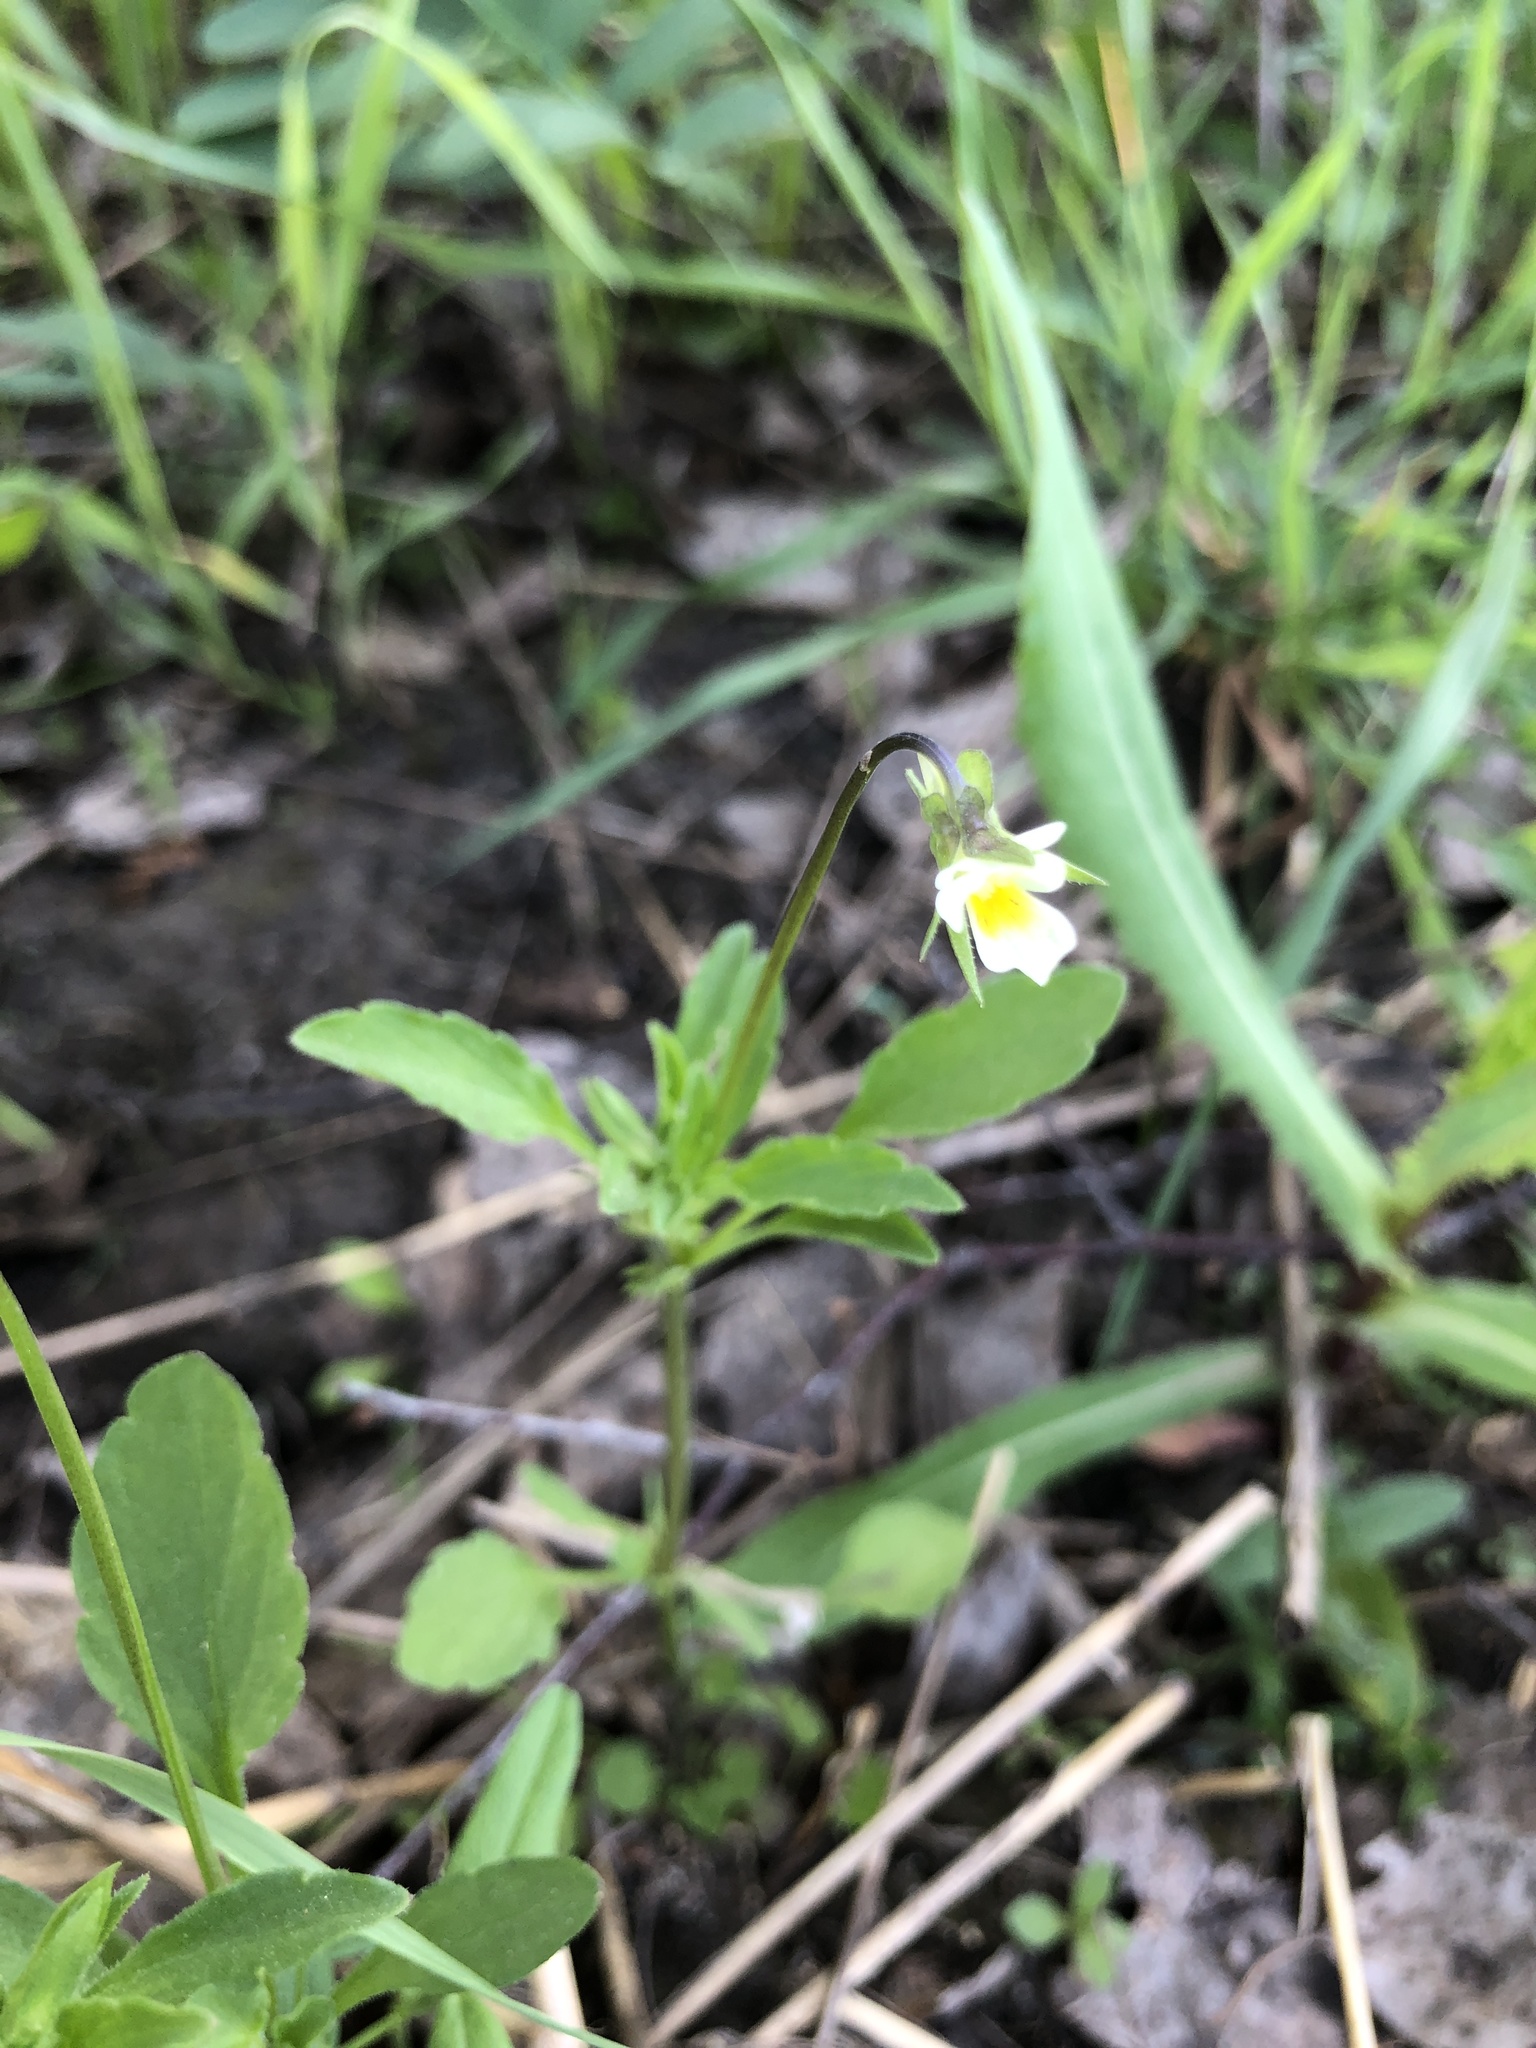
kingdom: Plantae
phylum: Tracheophyta
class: Magnoliopsida
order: Malpighiales
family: Violaceae
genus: Viola
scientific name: Viola arvensis
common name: Field pansy
